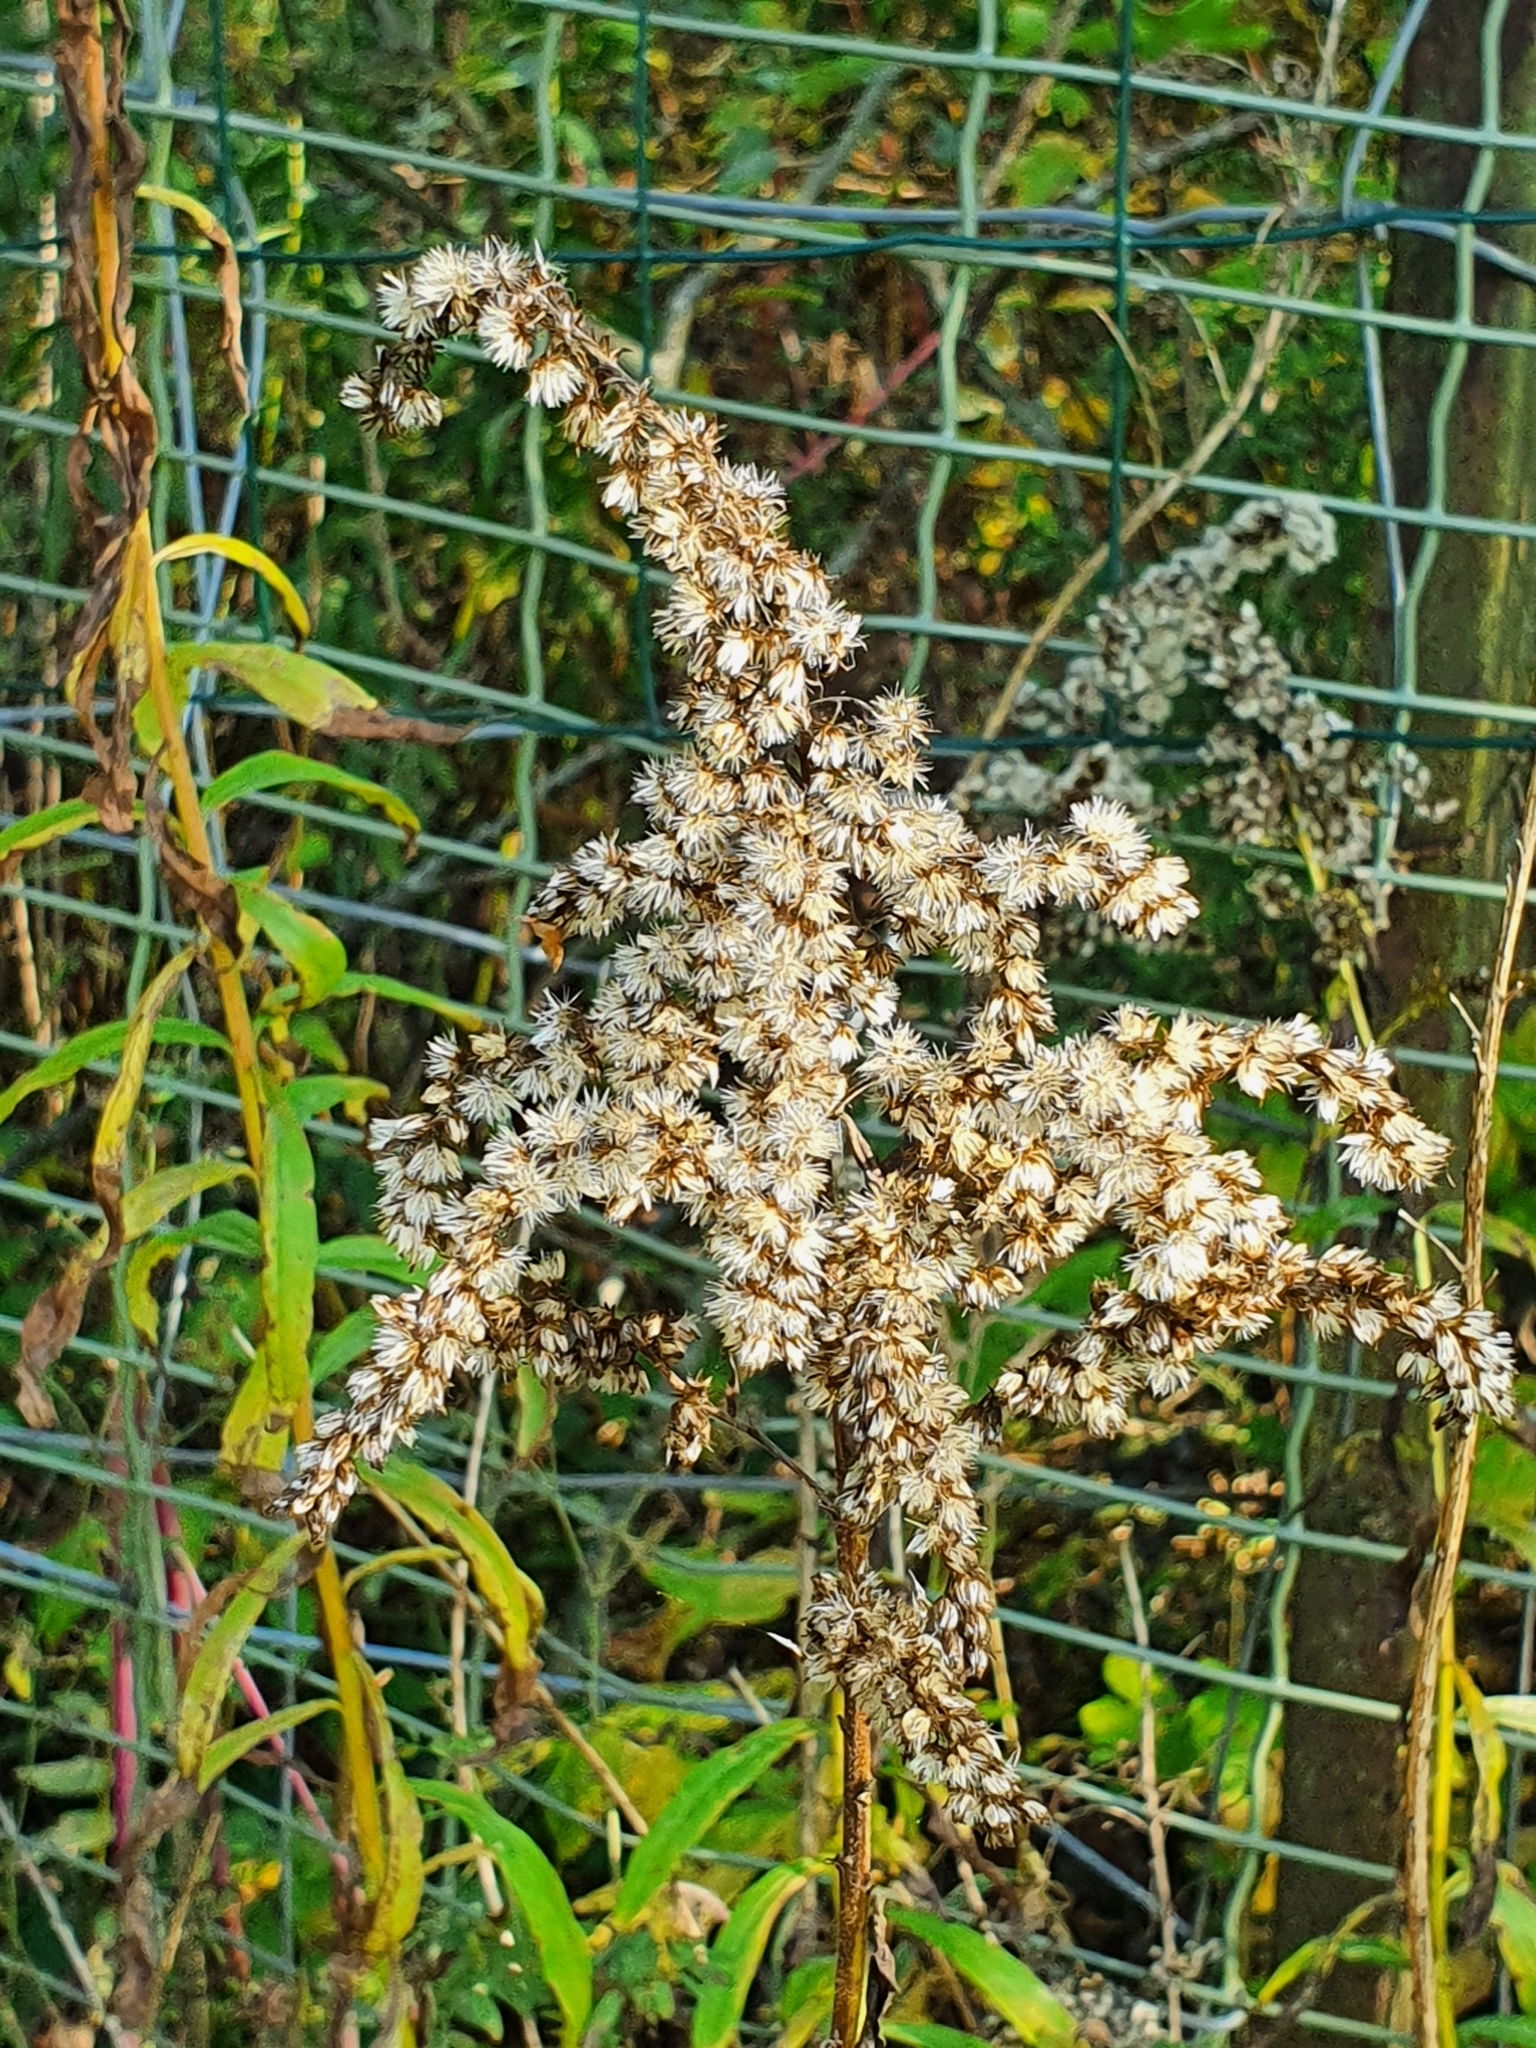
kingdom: Plantae
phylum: Tracheophyta
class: Magnoliopsida
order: Asterales
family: Asteraceae
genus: Solidago
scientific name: Solidago canadensis
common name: Canada goldenrod
